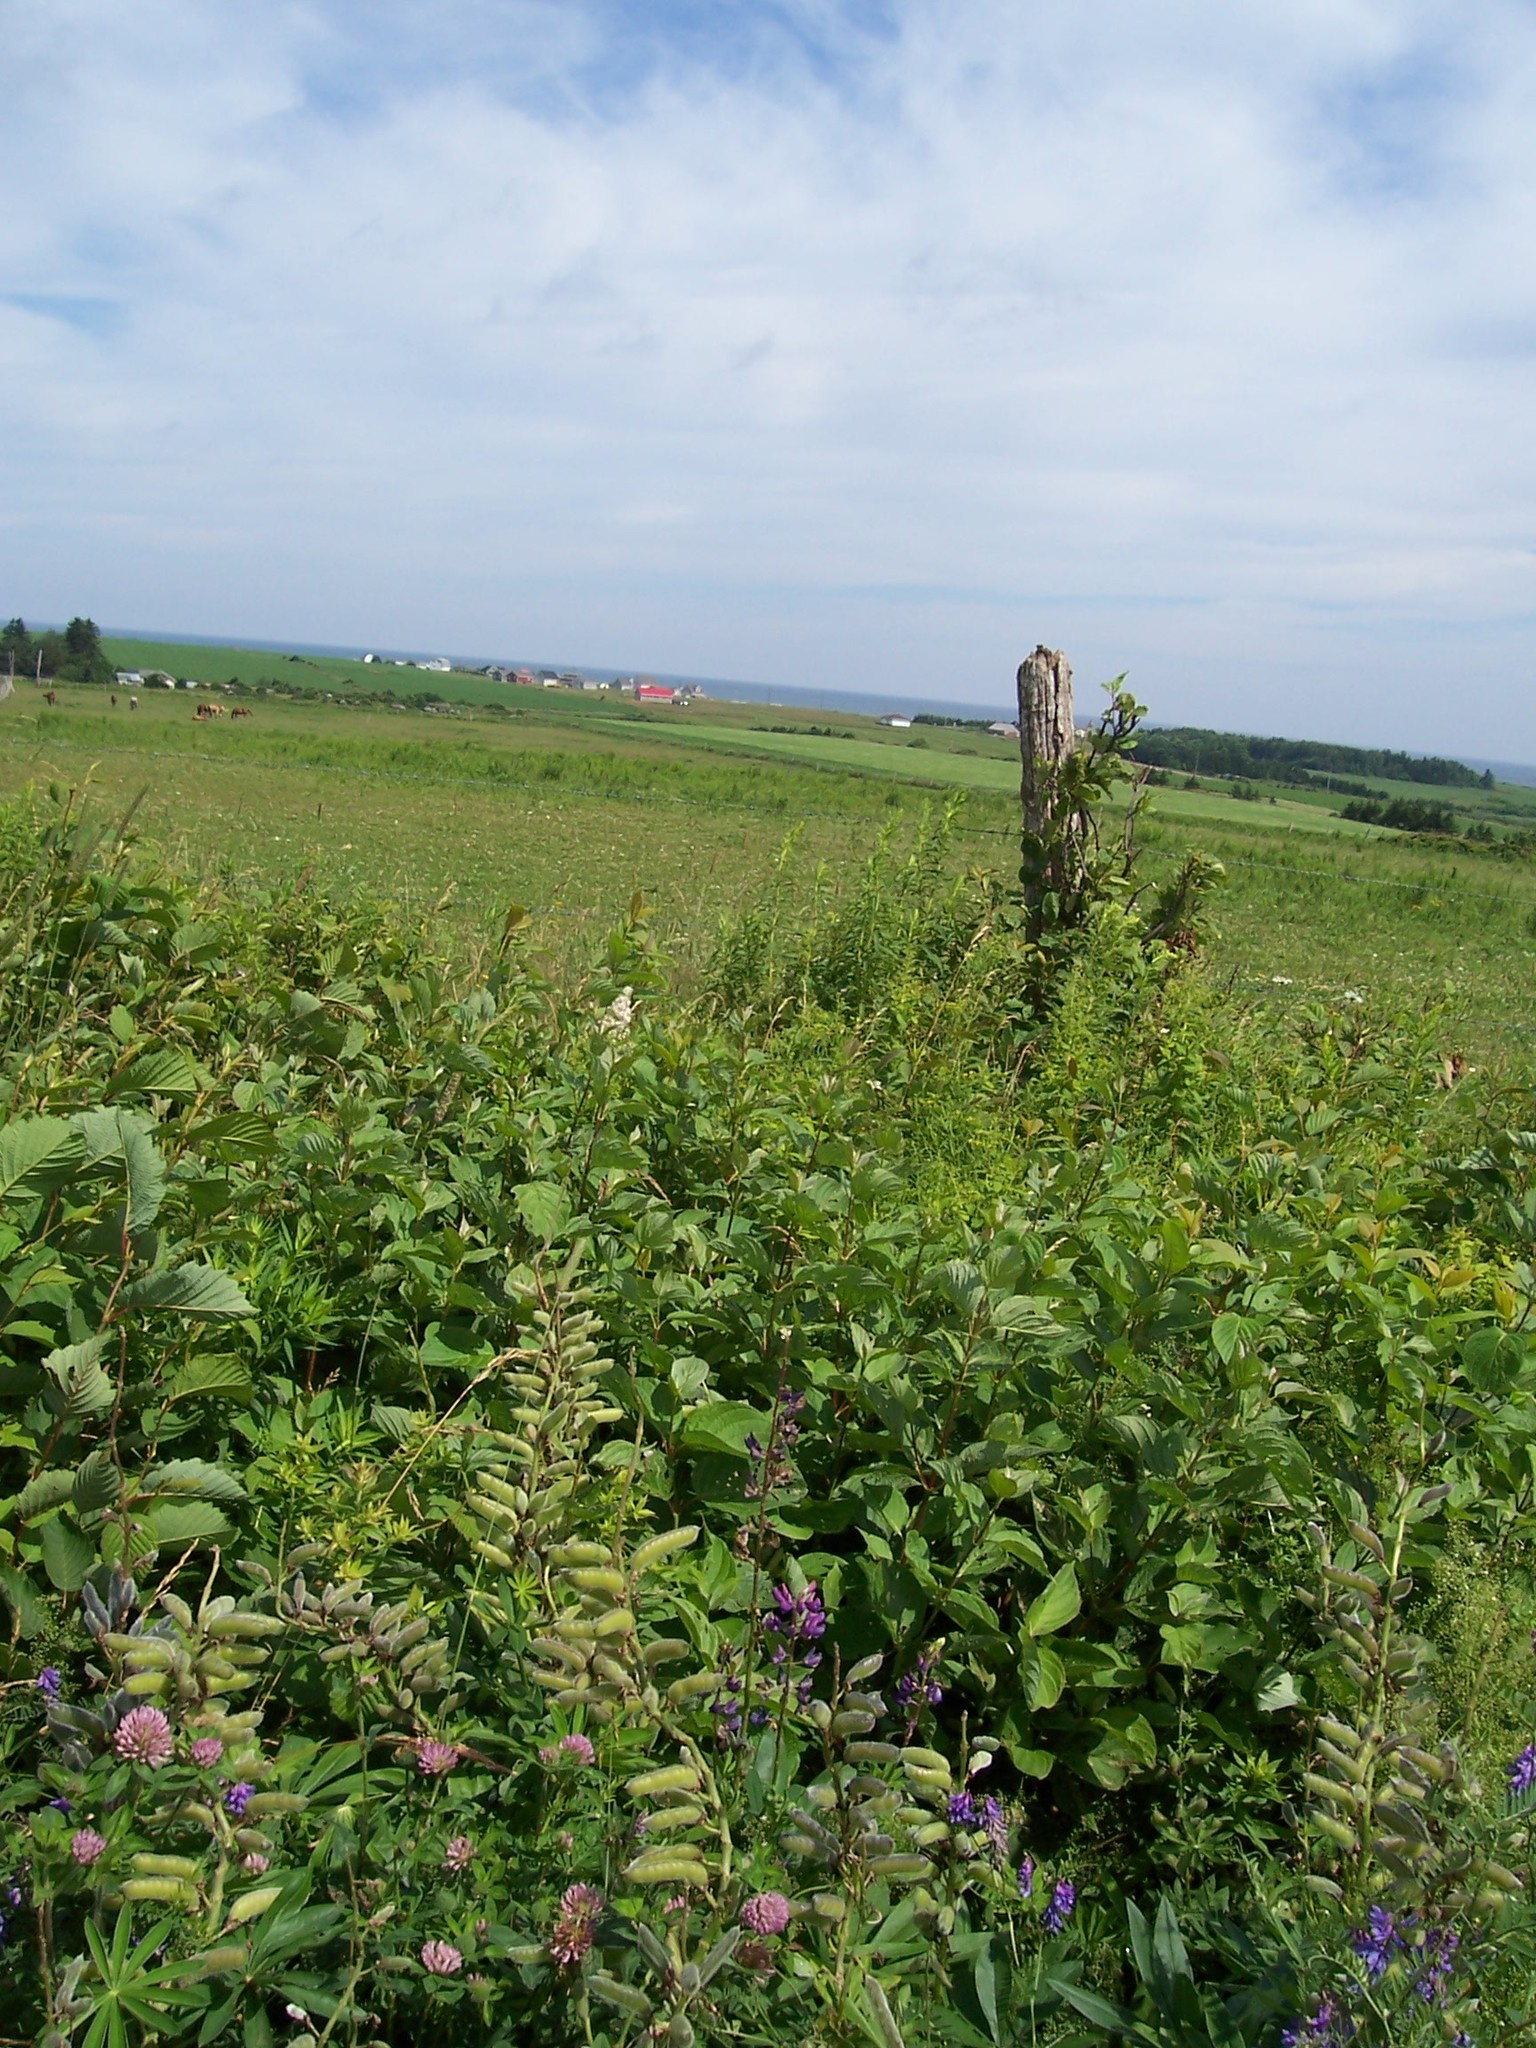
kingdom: Plantae
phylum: Tracheophyta
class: Magnoliopsida
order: Fabales
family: Fabaceae
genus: Lupinus
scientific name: Lupinus polyphyllus
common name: Garden lupin
